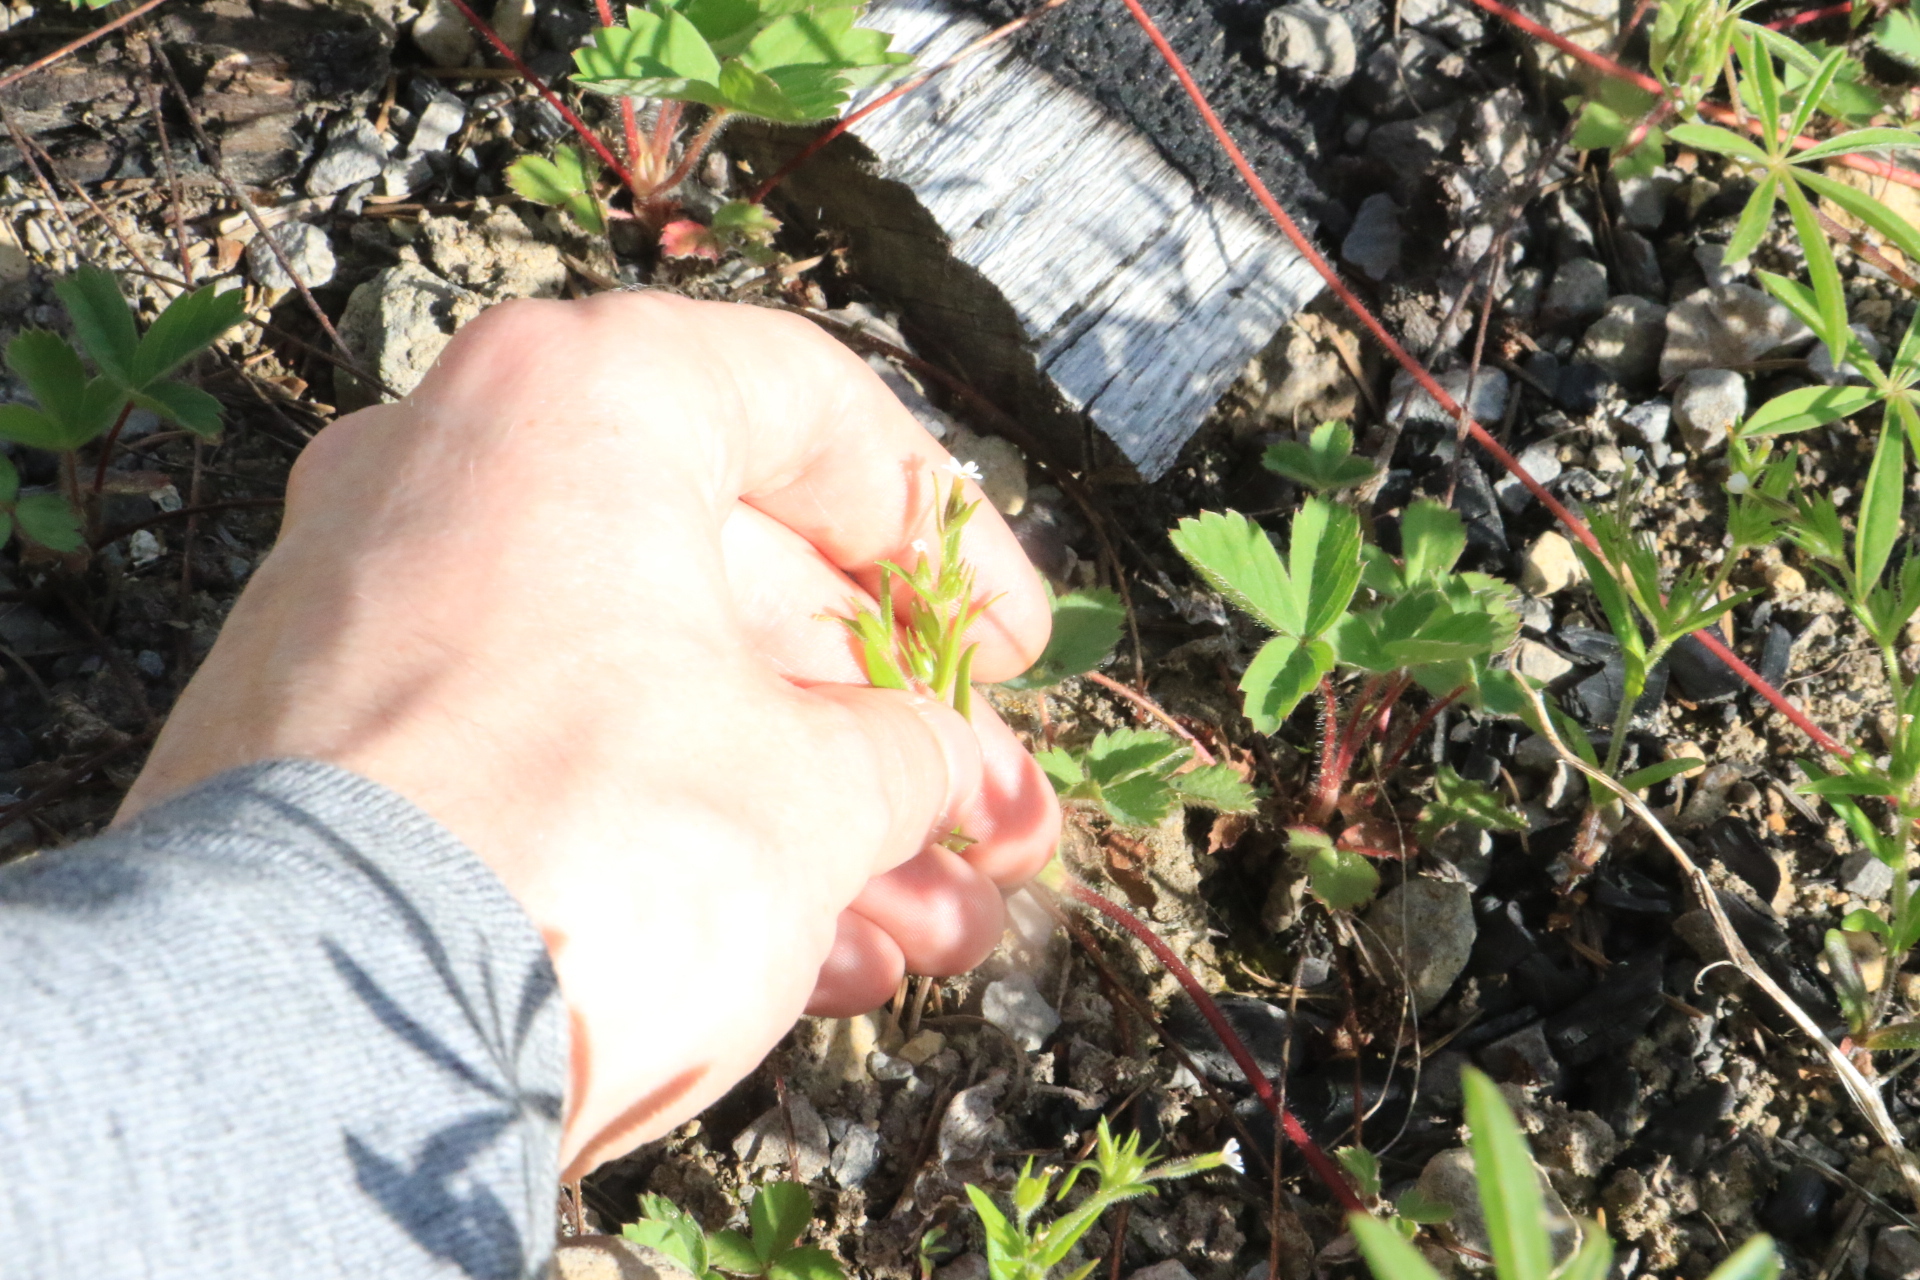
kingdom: Plantae
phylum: Tracheophyta
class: Magnoliopsida
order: Ericales
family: Polemoniaceae
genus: Phlox
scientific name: Phlox gracilis
